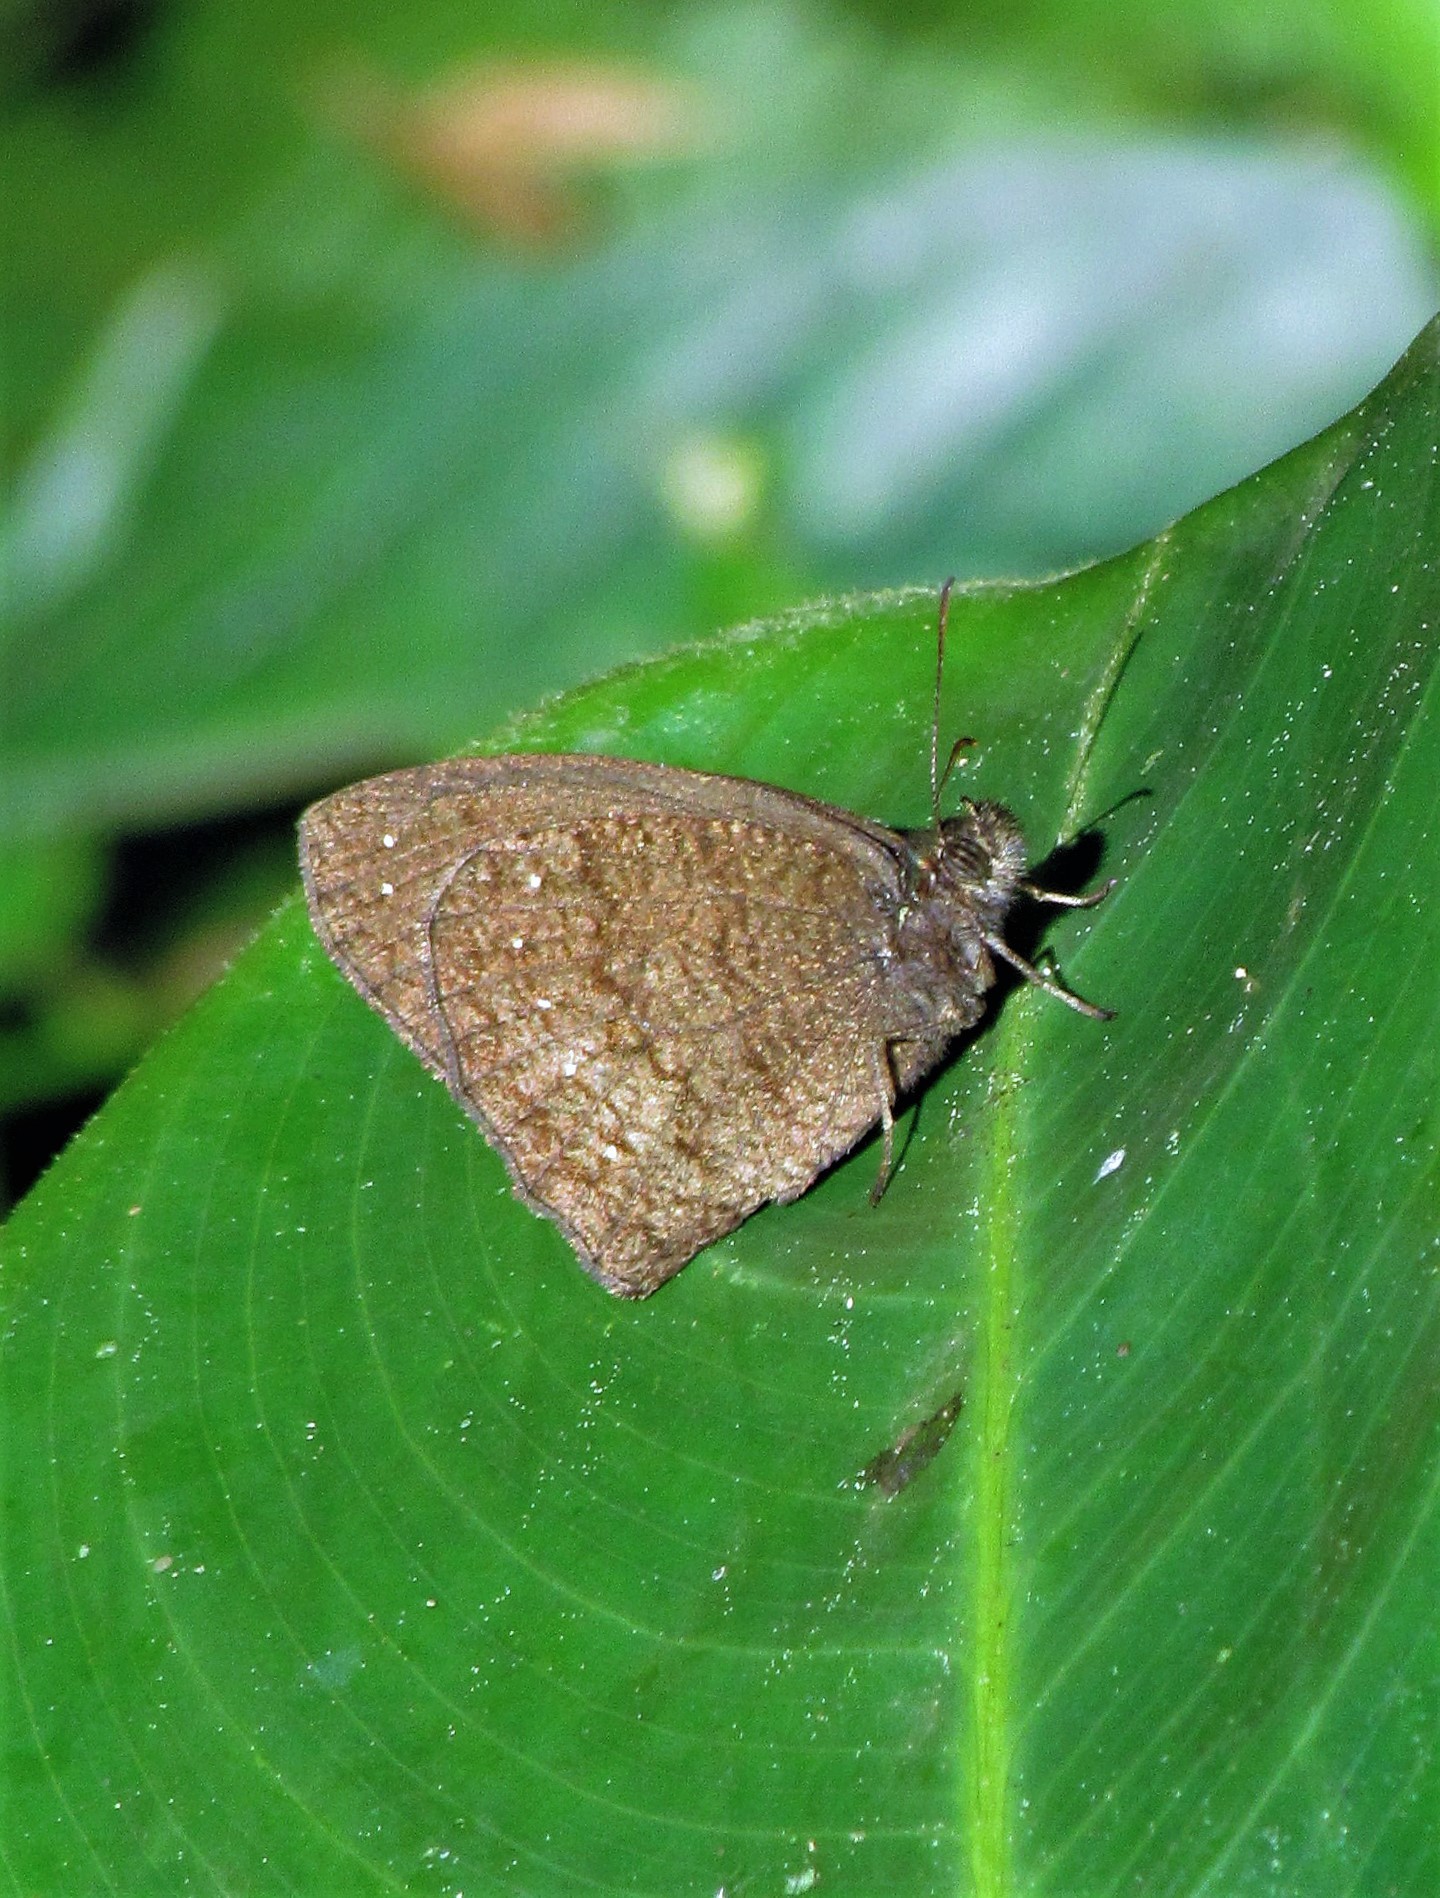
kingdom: Animalia
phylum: Arthropoda
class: Insecta
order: Lepidoptera
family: Nymphalidae
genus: Forsterinaria
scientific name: Forsterinaria necys
